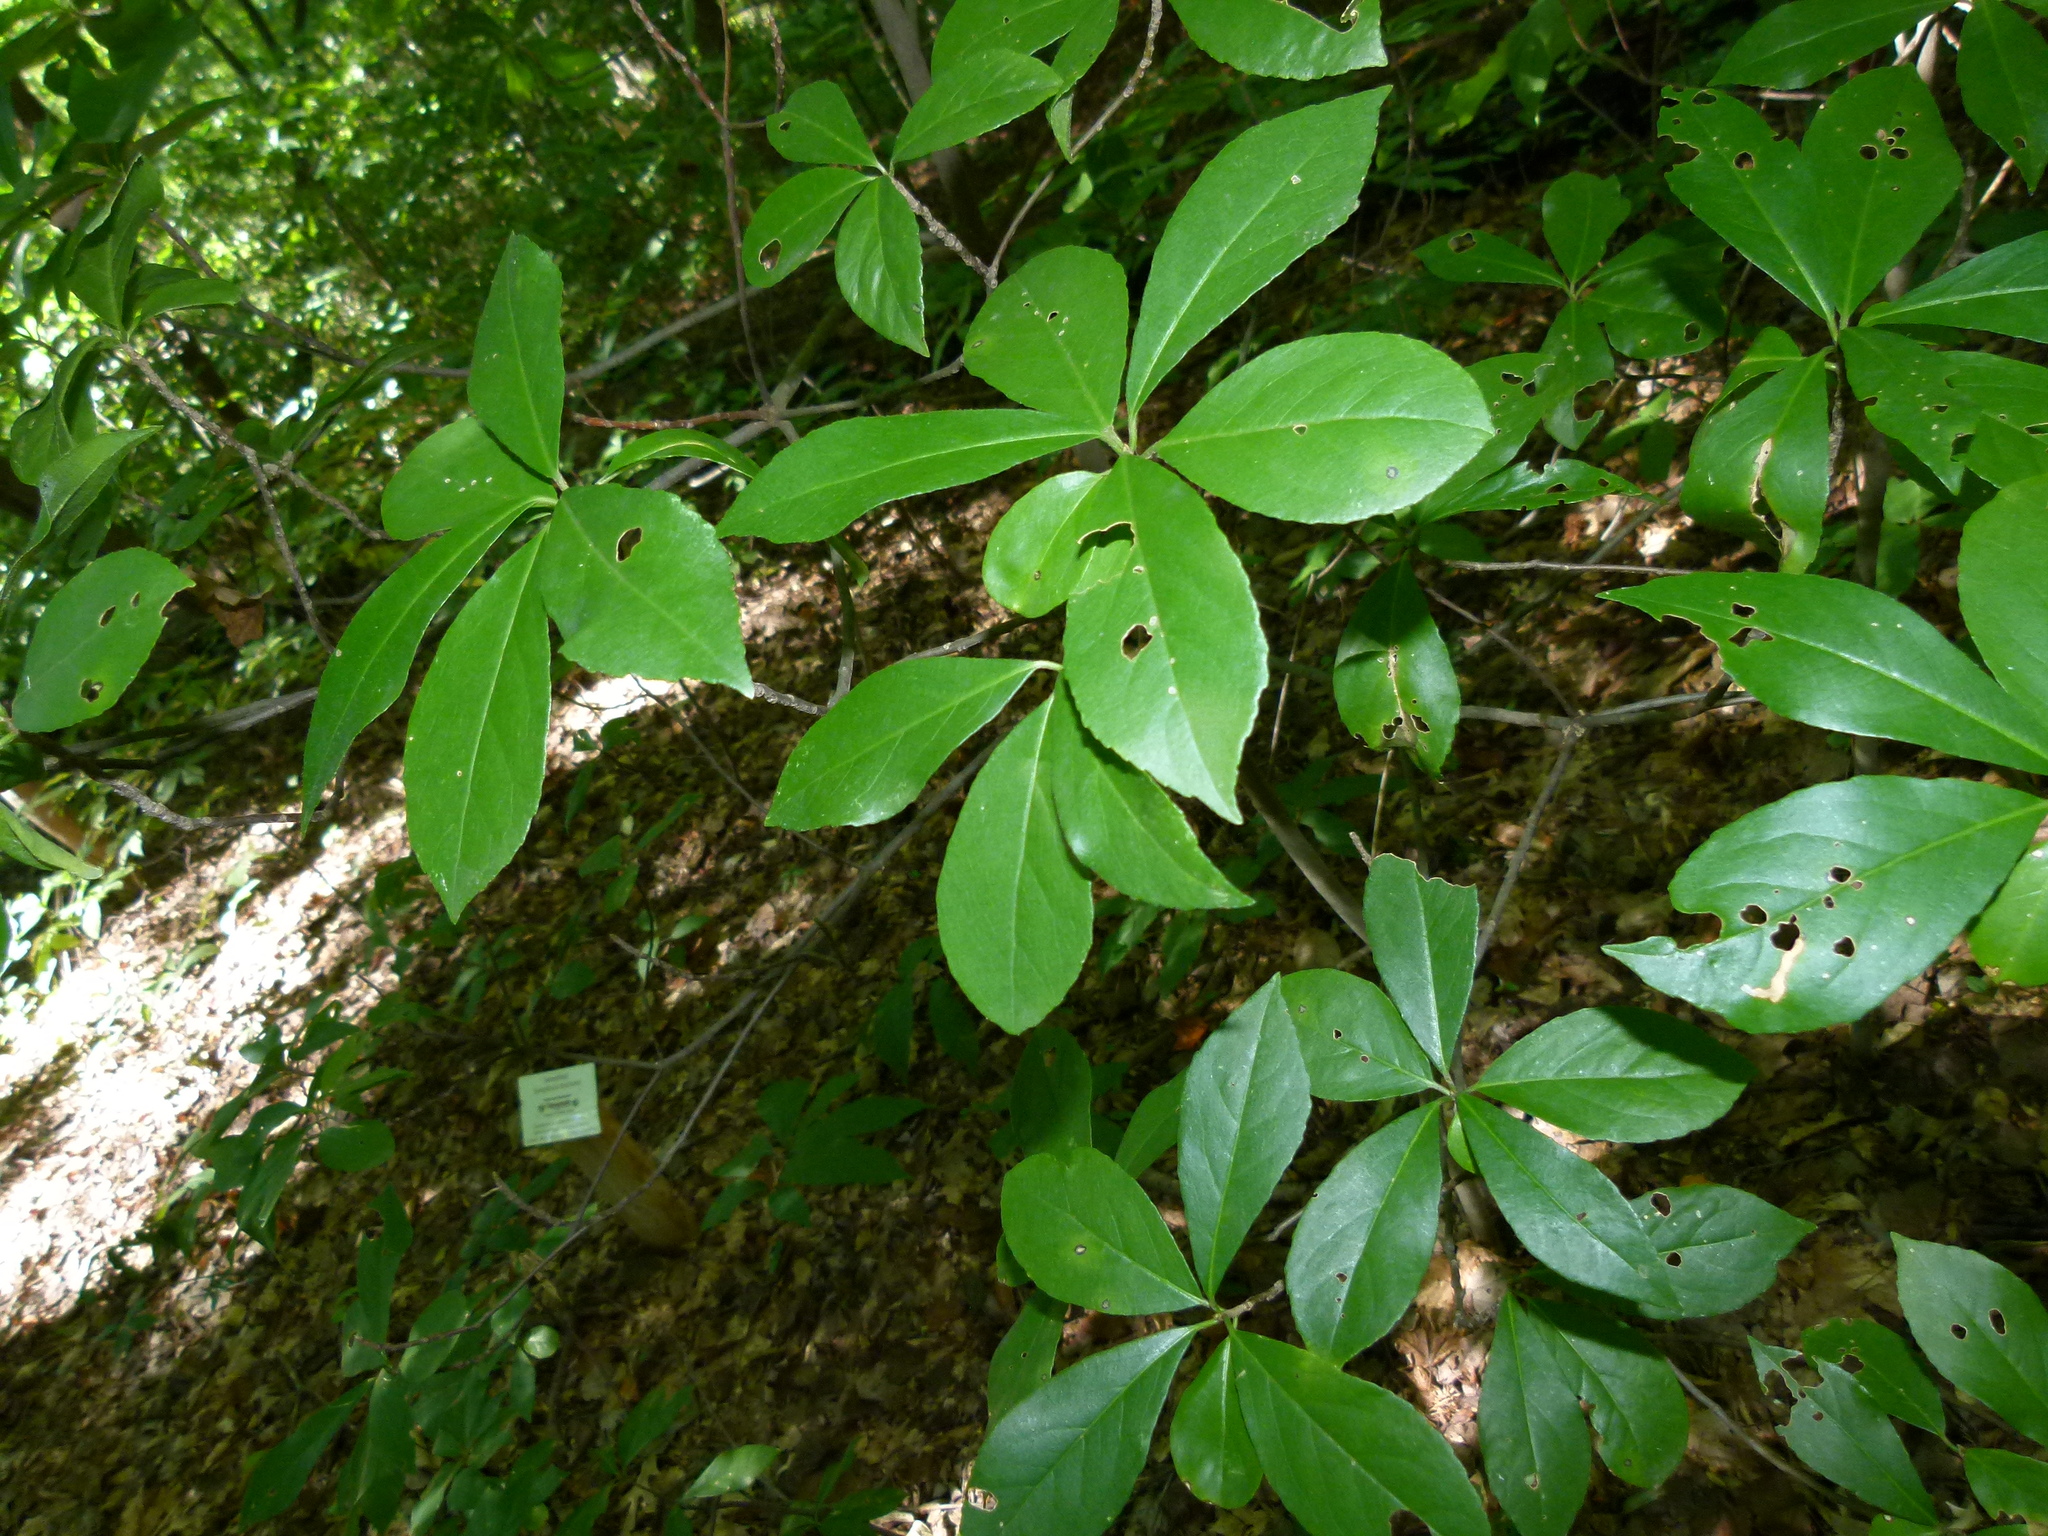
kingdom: Plantae
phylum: Tracheophyta
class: Magnoliopsida
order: Ericales
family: Symplocaceae
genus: Symplocos
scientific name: Symplocos tinctoria
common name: Horse-sugar
